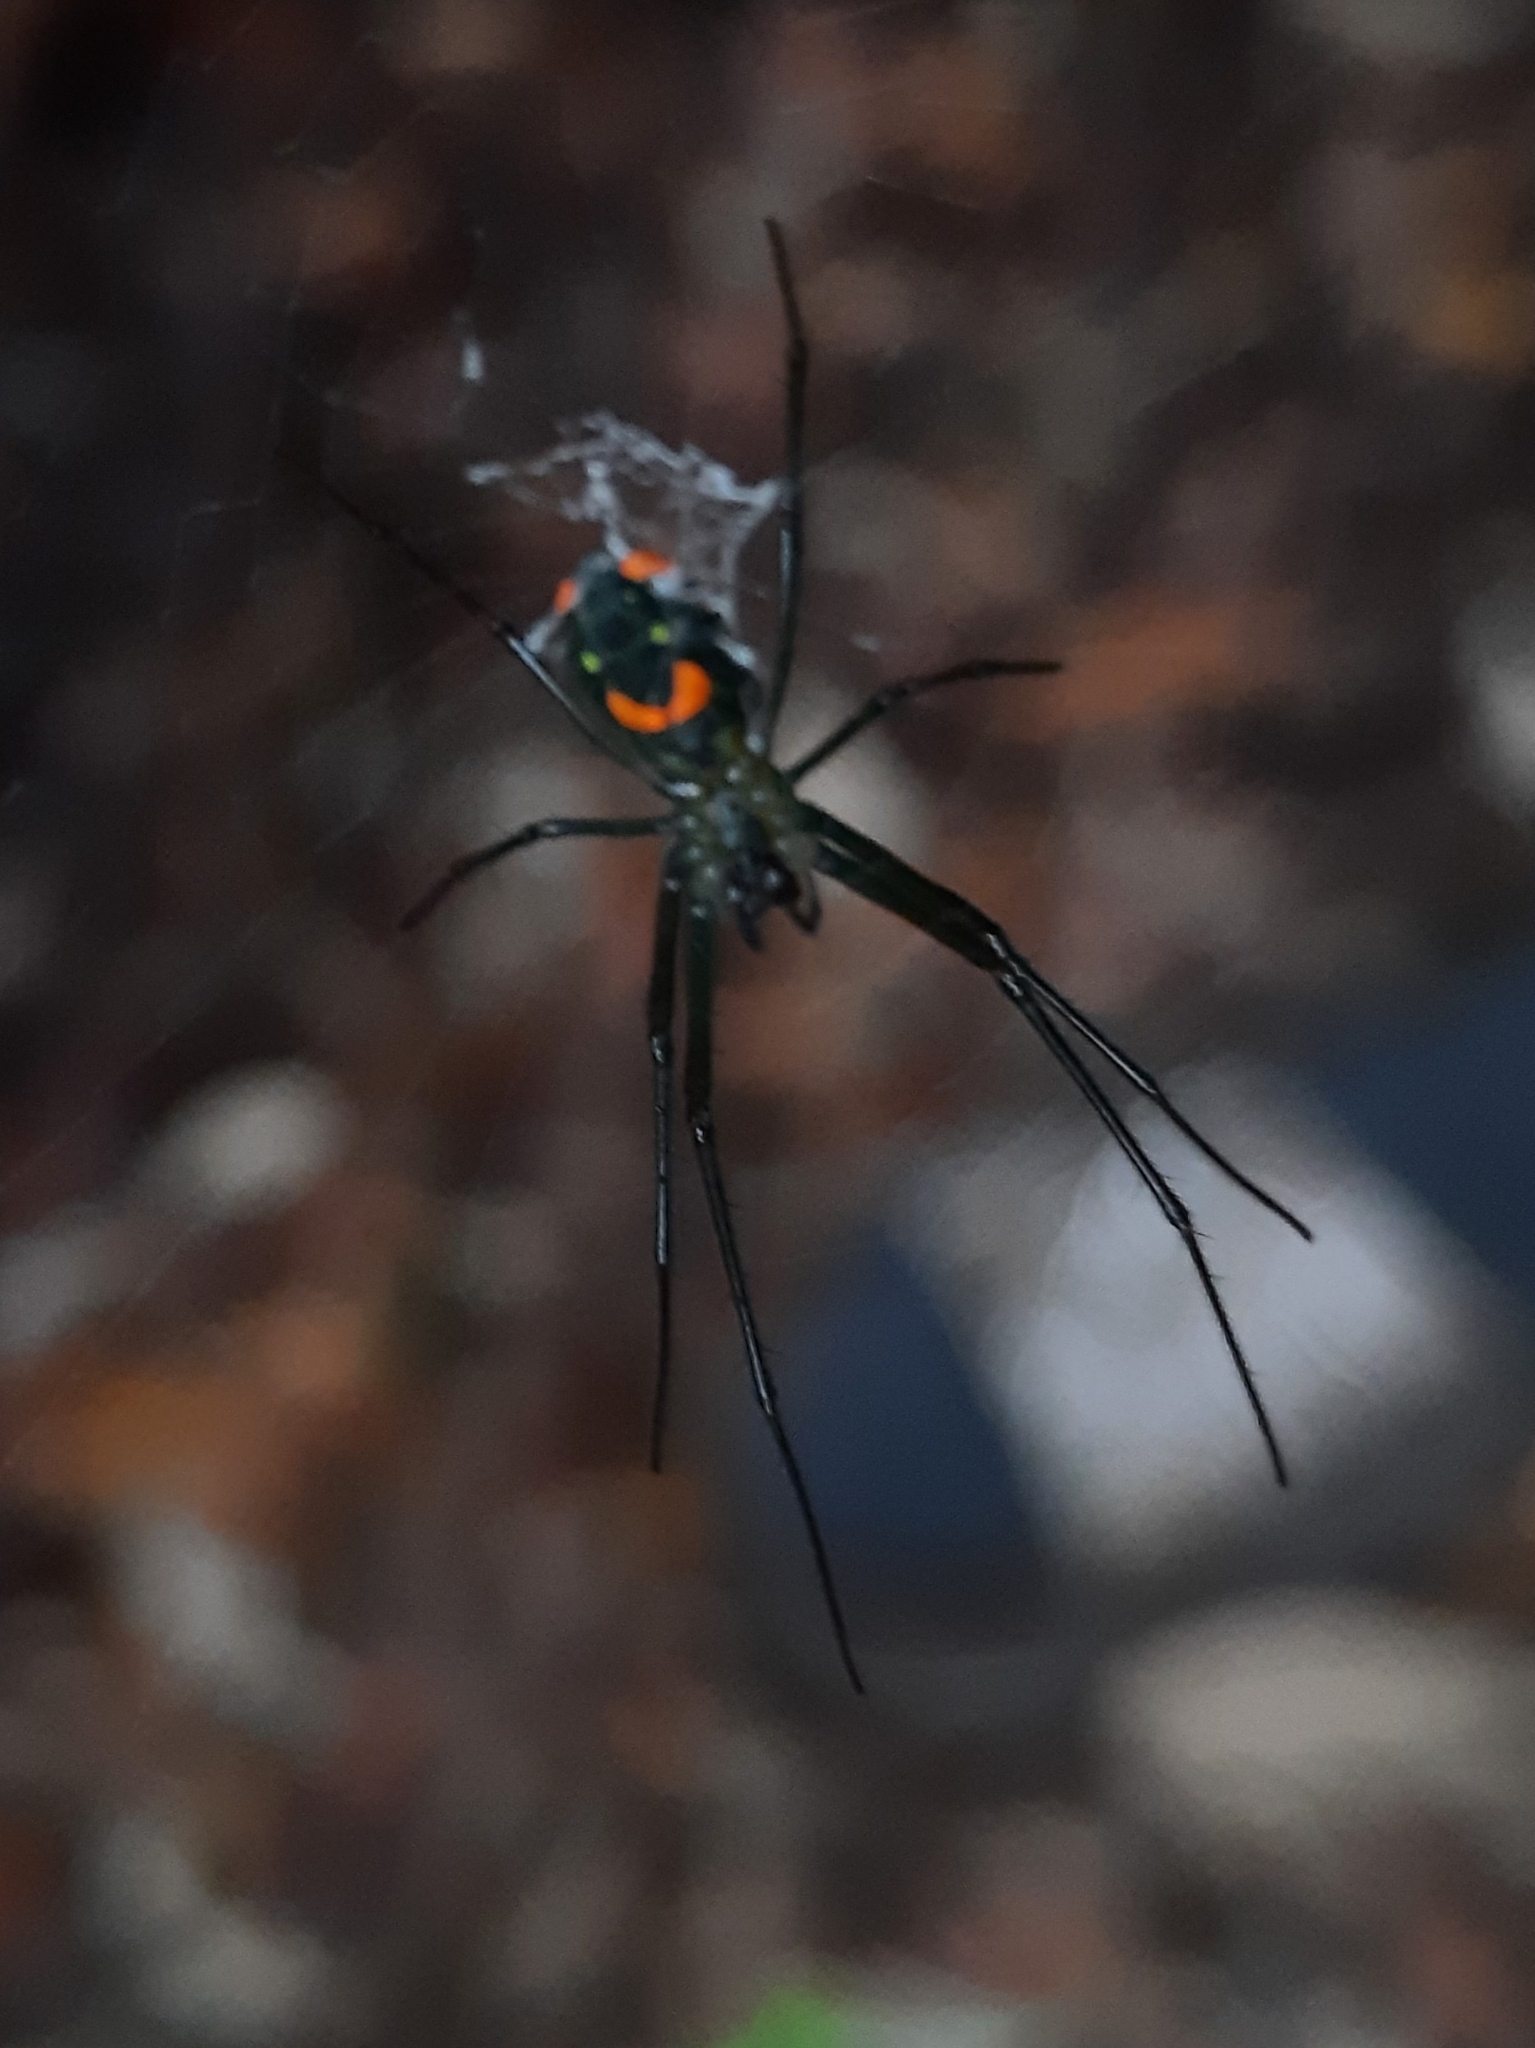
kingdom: Animalia
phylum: Arthropoda
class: Arachnida
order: Araneae
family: Tetragnathidae
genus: Leucauge
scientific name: Leucauge argyrobapta
